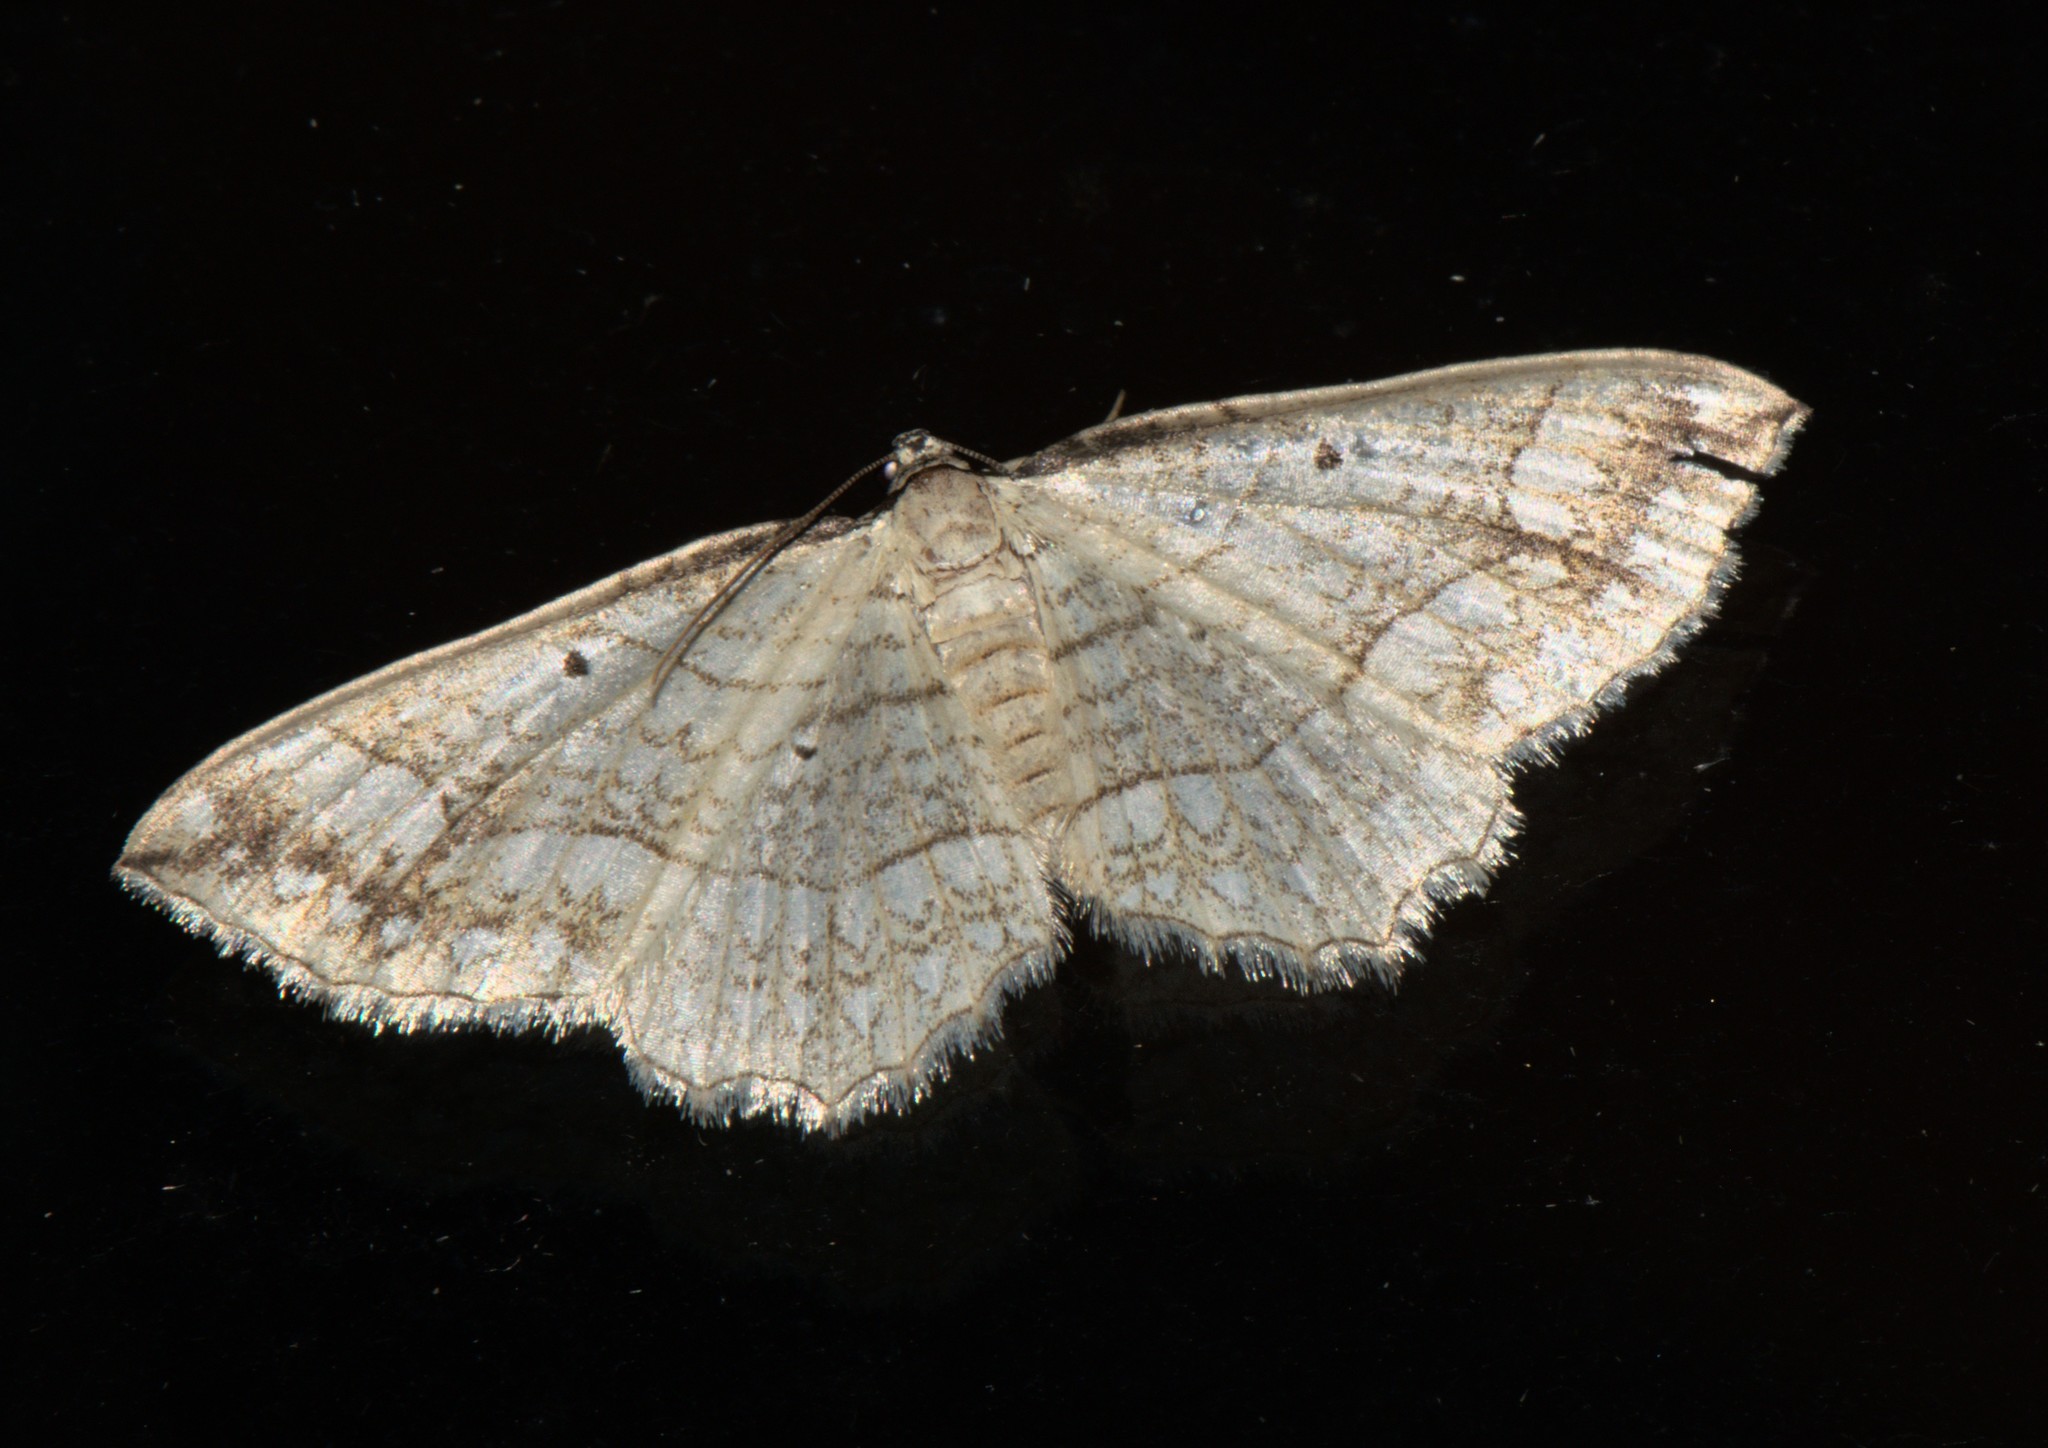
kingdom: Animalia
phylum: Arthropoda
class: Insecta
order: Lepidoptera
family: Geometridae
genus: Laciniodes
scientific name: Laciniodes plurilinearia
